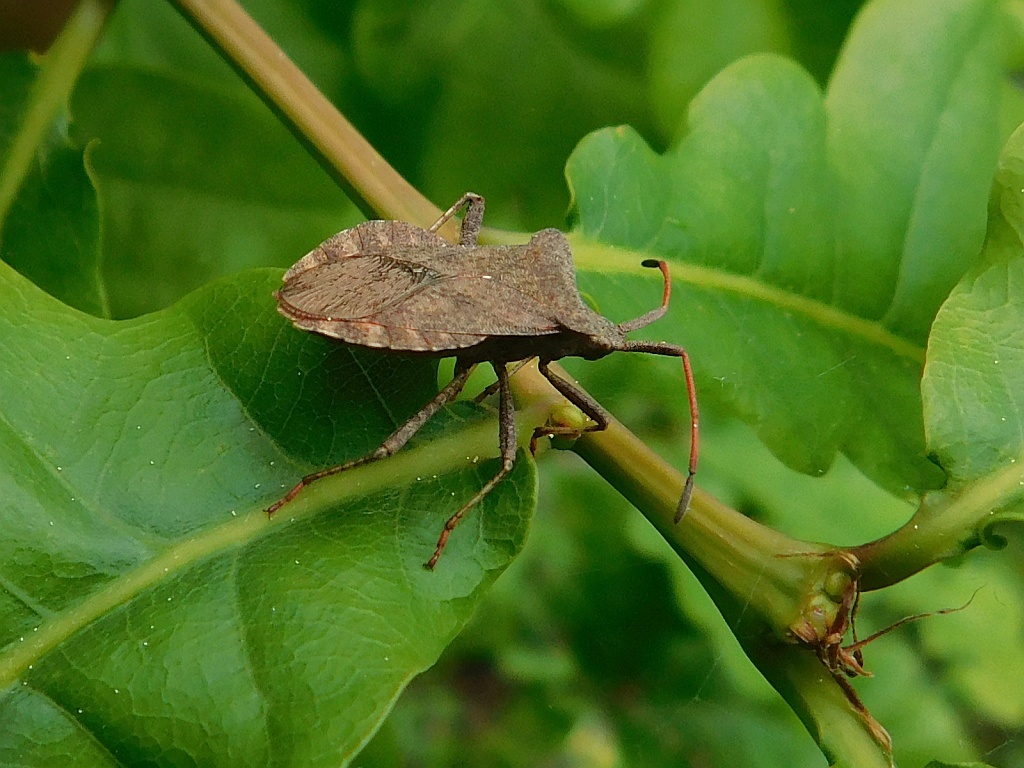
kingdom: Animalia
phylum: Arthropoda
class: Insecta
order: Hemiptera
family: Coreidae
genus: Coreus
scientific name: Coreus marginatus
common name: Dock bug
